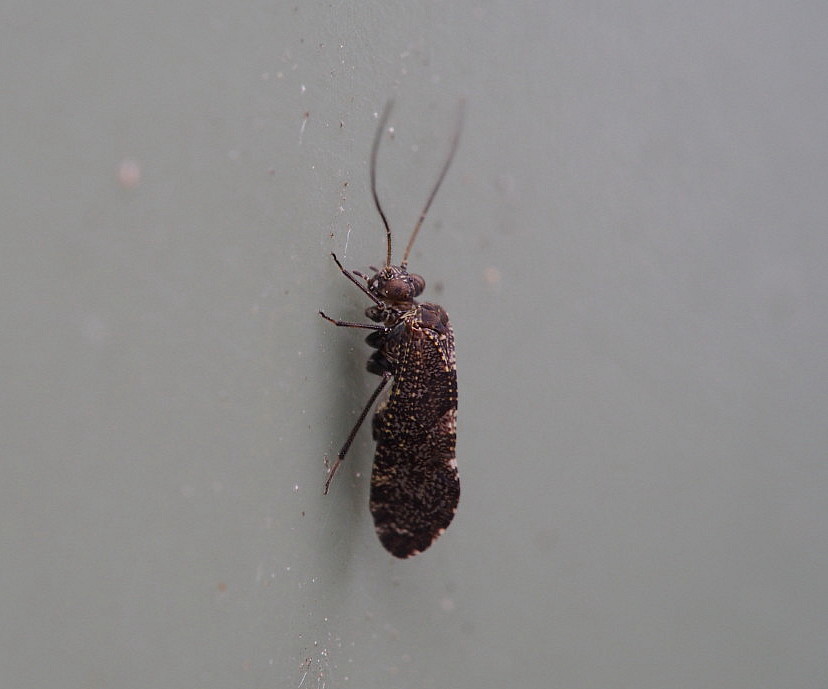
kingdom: Animalia
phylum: Arthropoda
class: Insecta
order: Psocodea
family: Myopsocidae
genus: Nimbopsocus
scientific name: Nimbopsocus australis
